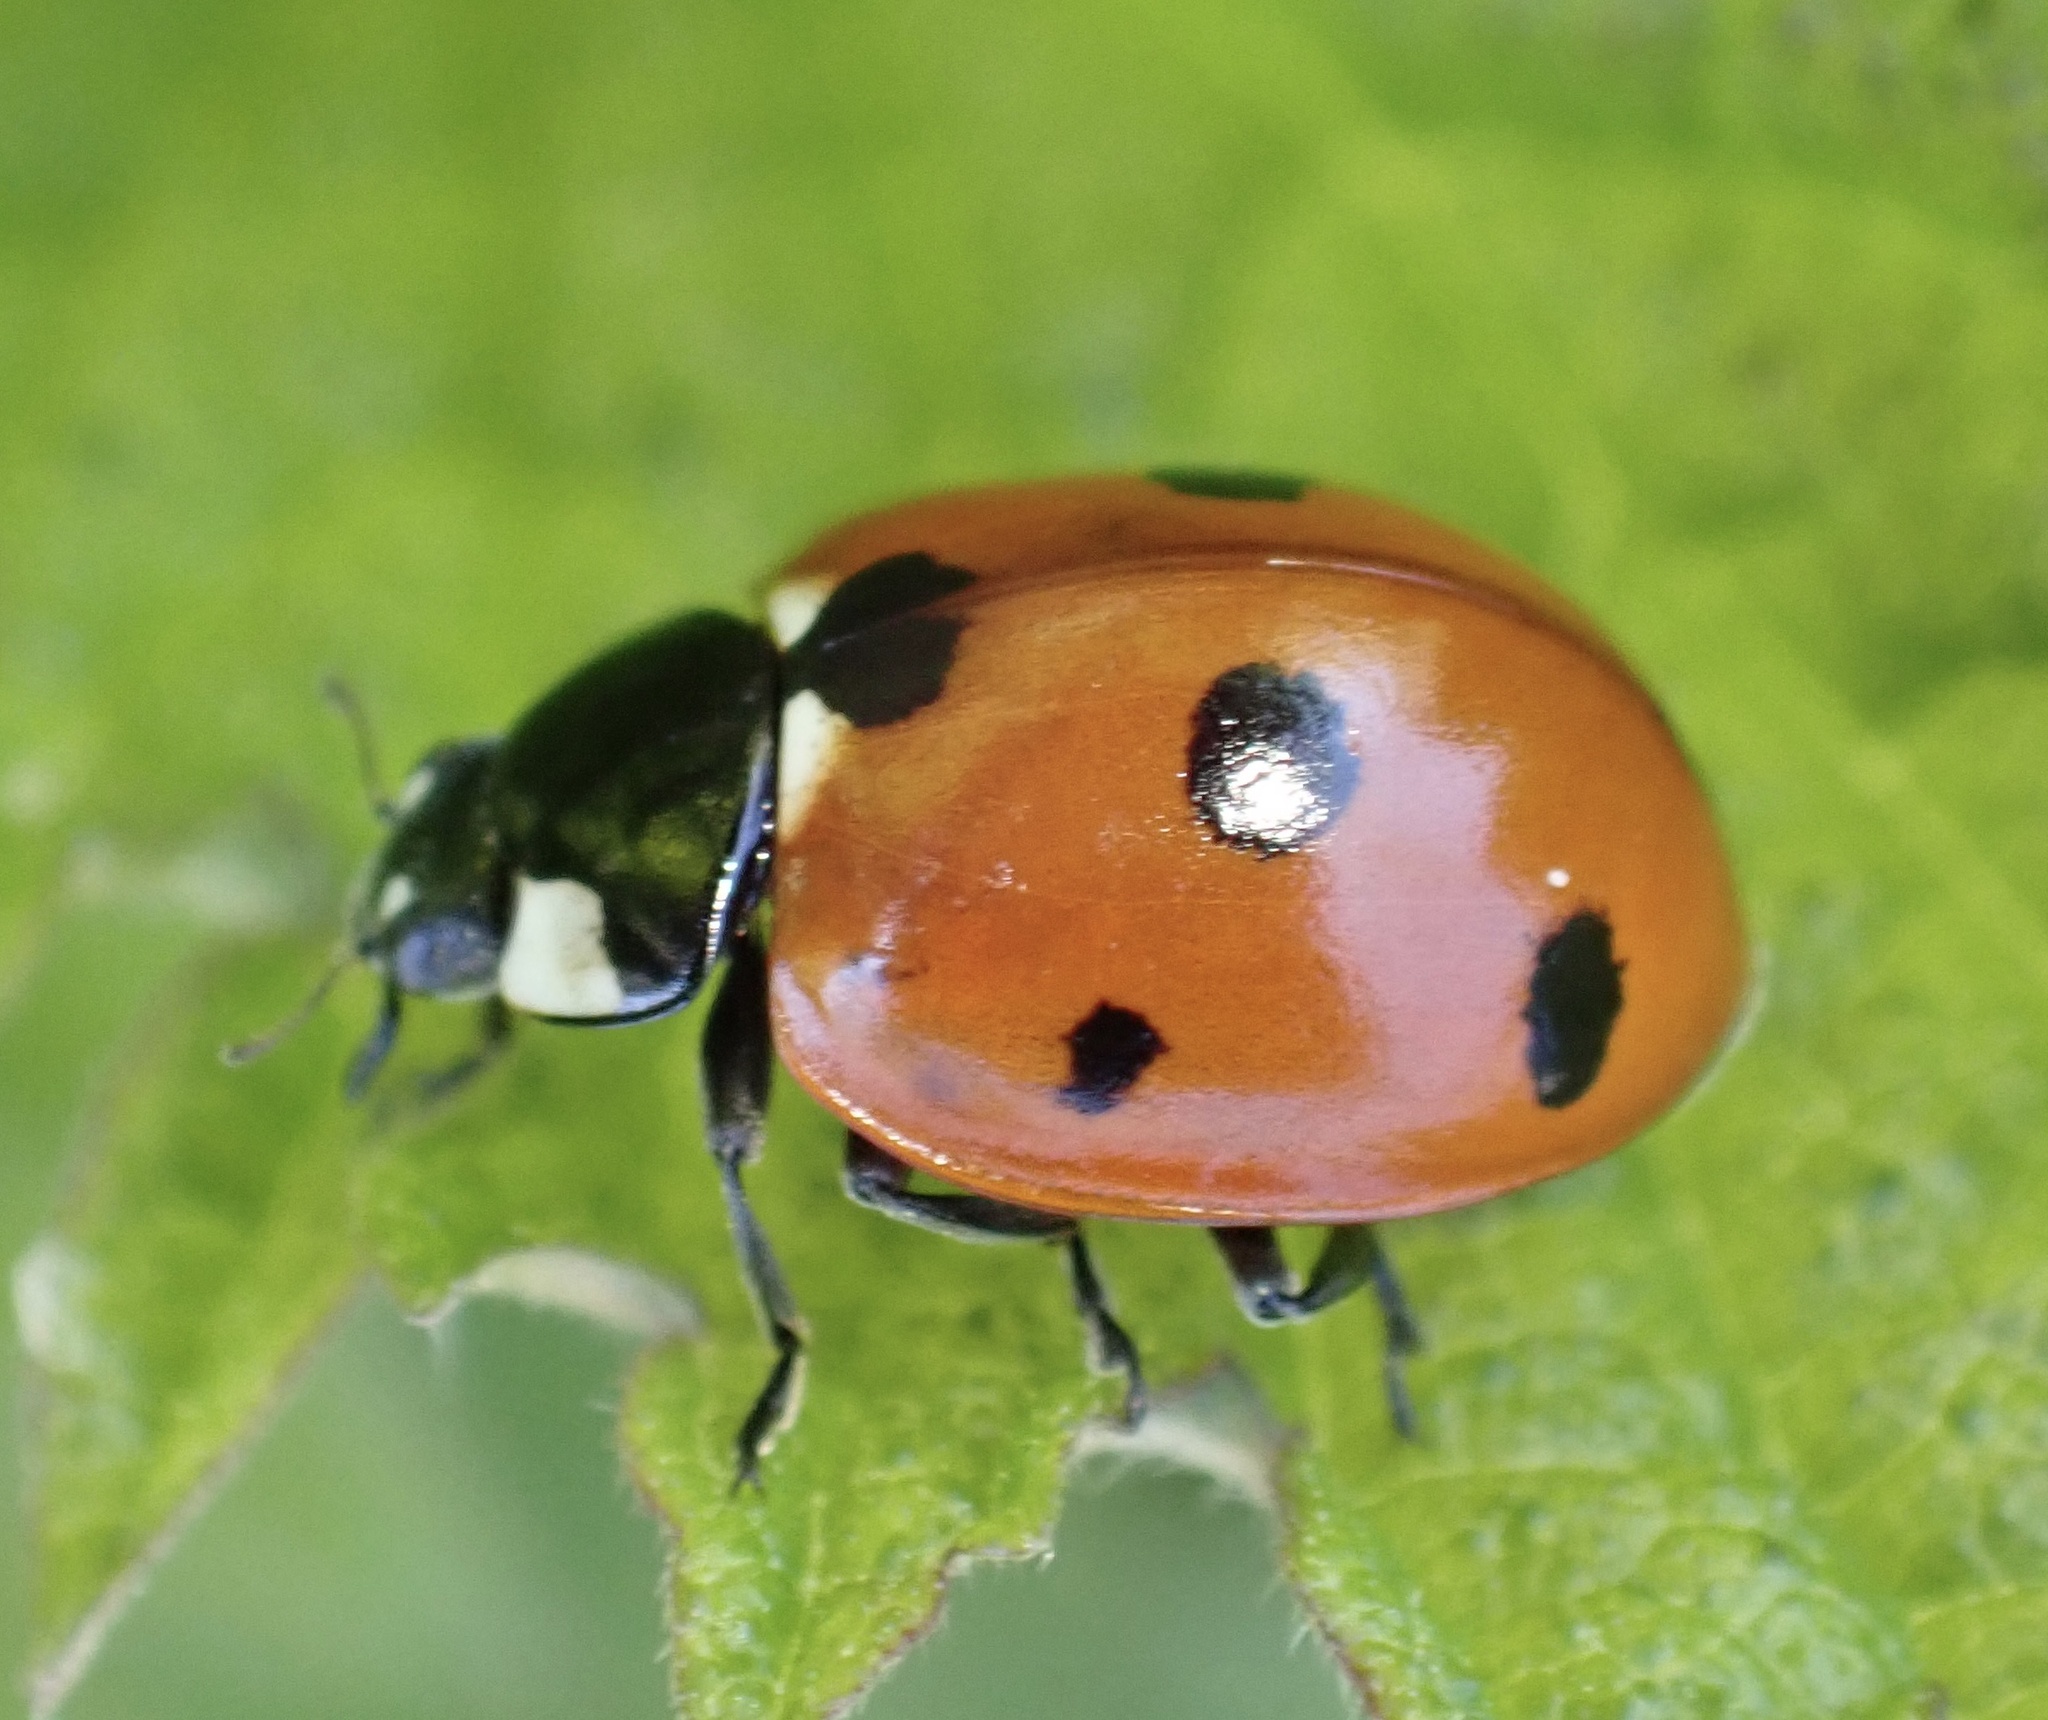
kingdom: Animalia
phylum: Arthropoda
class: Insecta
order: Coleoptera
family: Coccinellidae
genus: Coccinella
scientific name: Coccinella septempunctata
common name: Sevenspotted lady beetle
